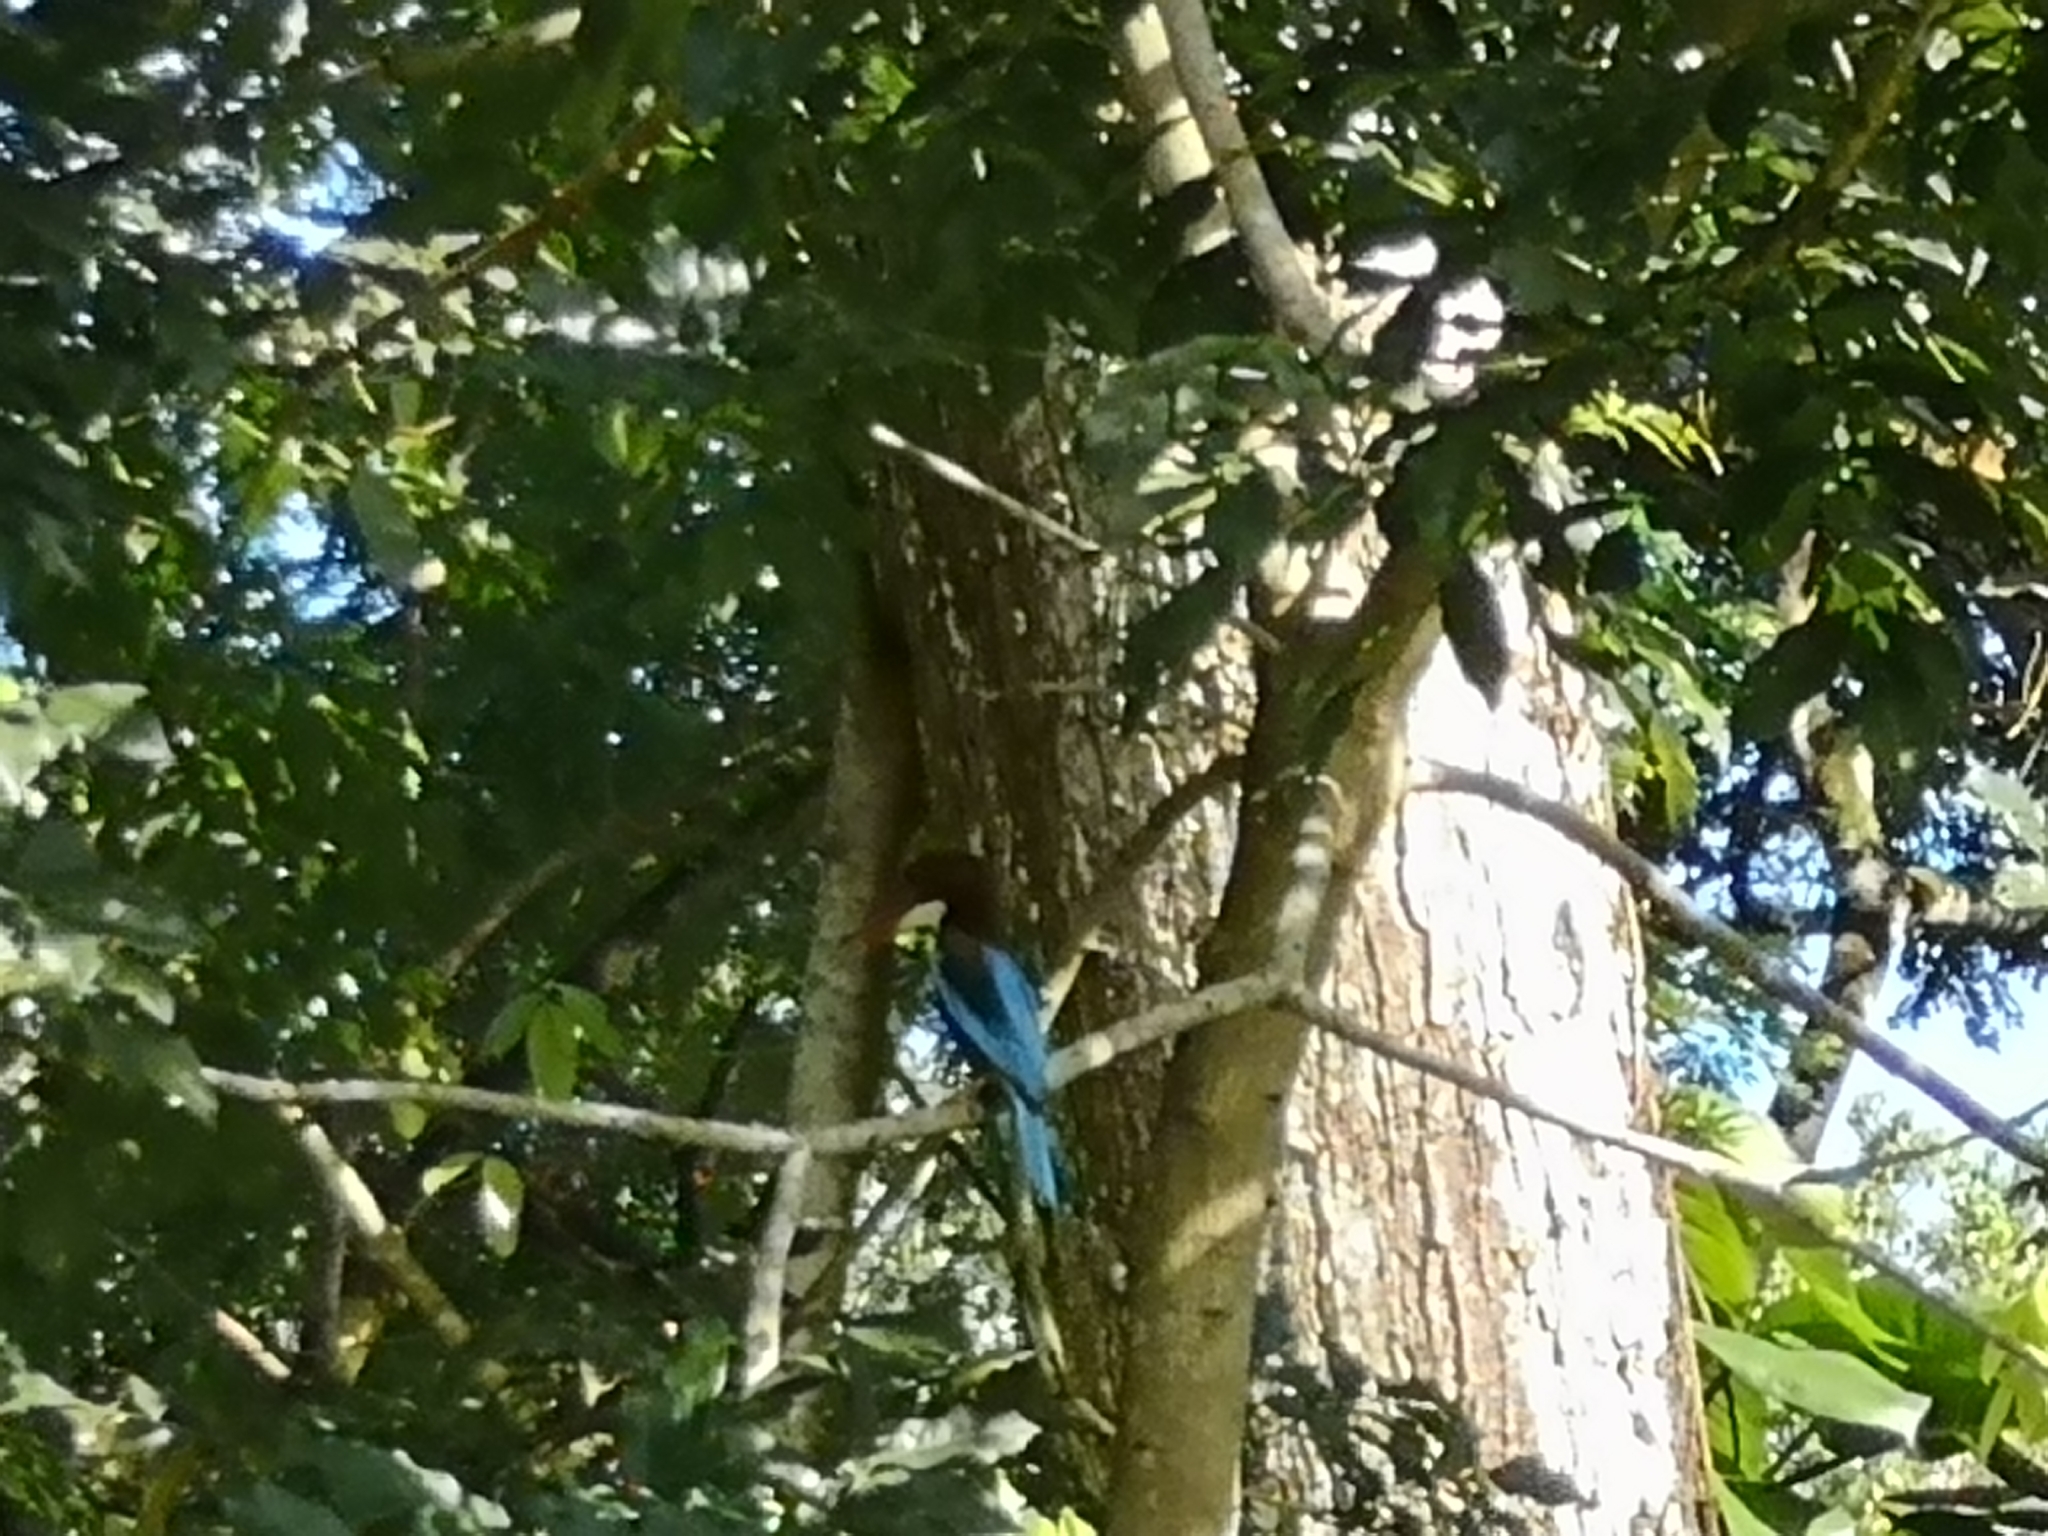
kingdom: Animalia
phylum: Chordata
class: Aves
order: Coraciiformes
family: Alcedinidae
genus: Halcyon
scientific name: Halcyon smyrnensis
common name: White-throated kingfisher
